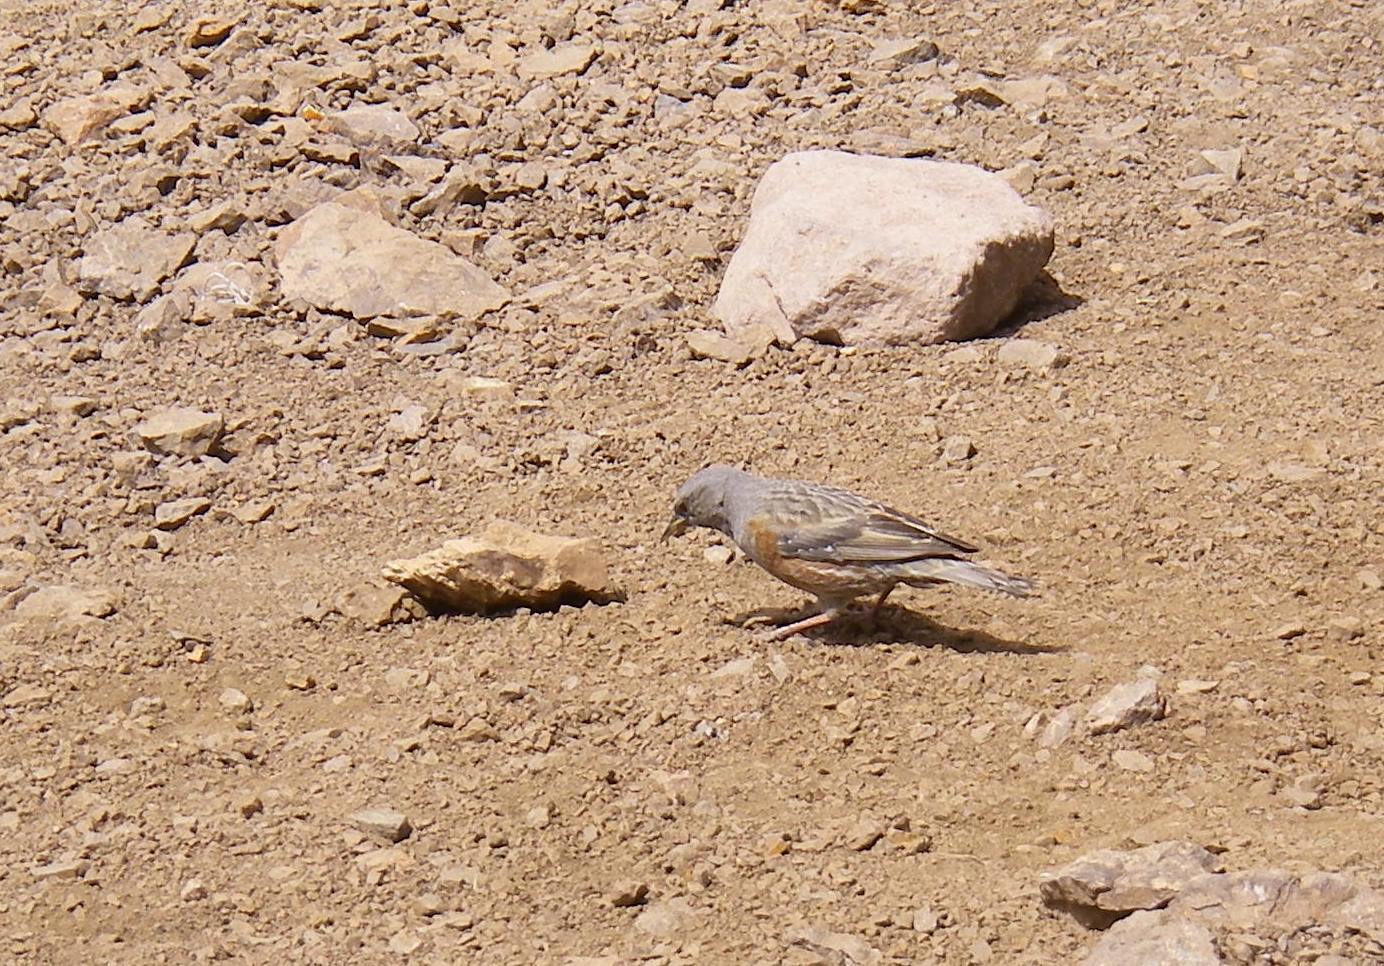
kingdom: Animalia
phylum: Chordata
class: Aves
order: Passeriformes
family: Prunellidae
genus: Prunella
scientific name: Prunella collaris
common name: Alpine accentor
